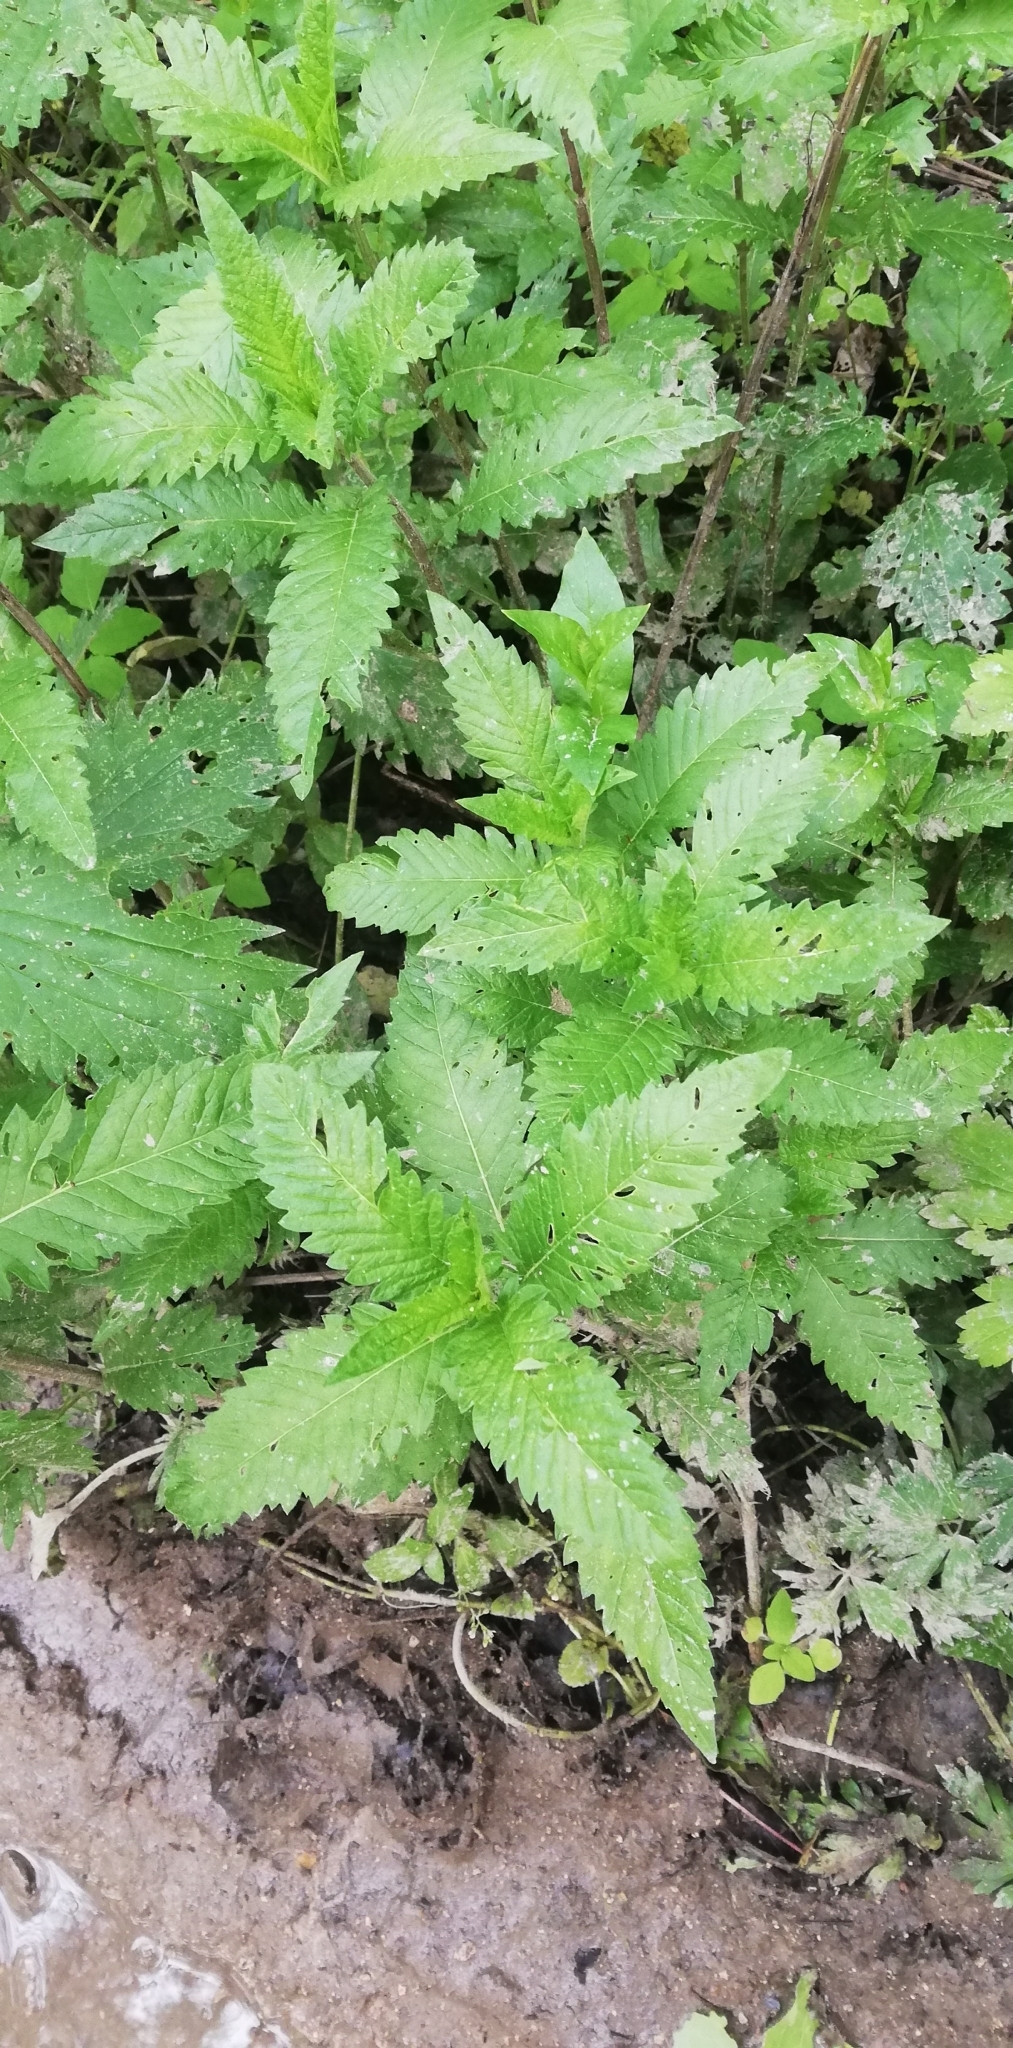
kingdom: Plantae
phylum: Tracheophyta
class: Magnoliopsida
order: Lamiales
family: Lamiaceae
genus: Lycopus
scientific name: Lycopus europaeus
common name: European bugleweed
